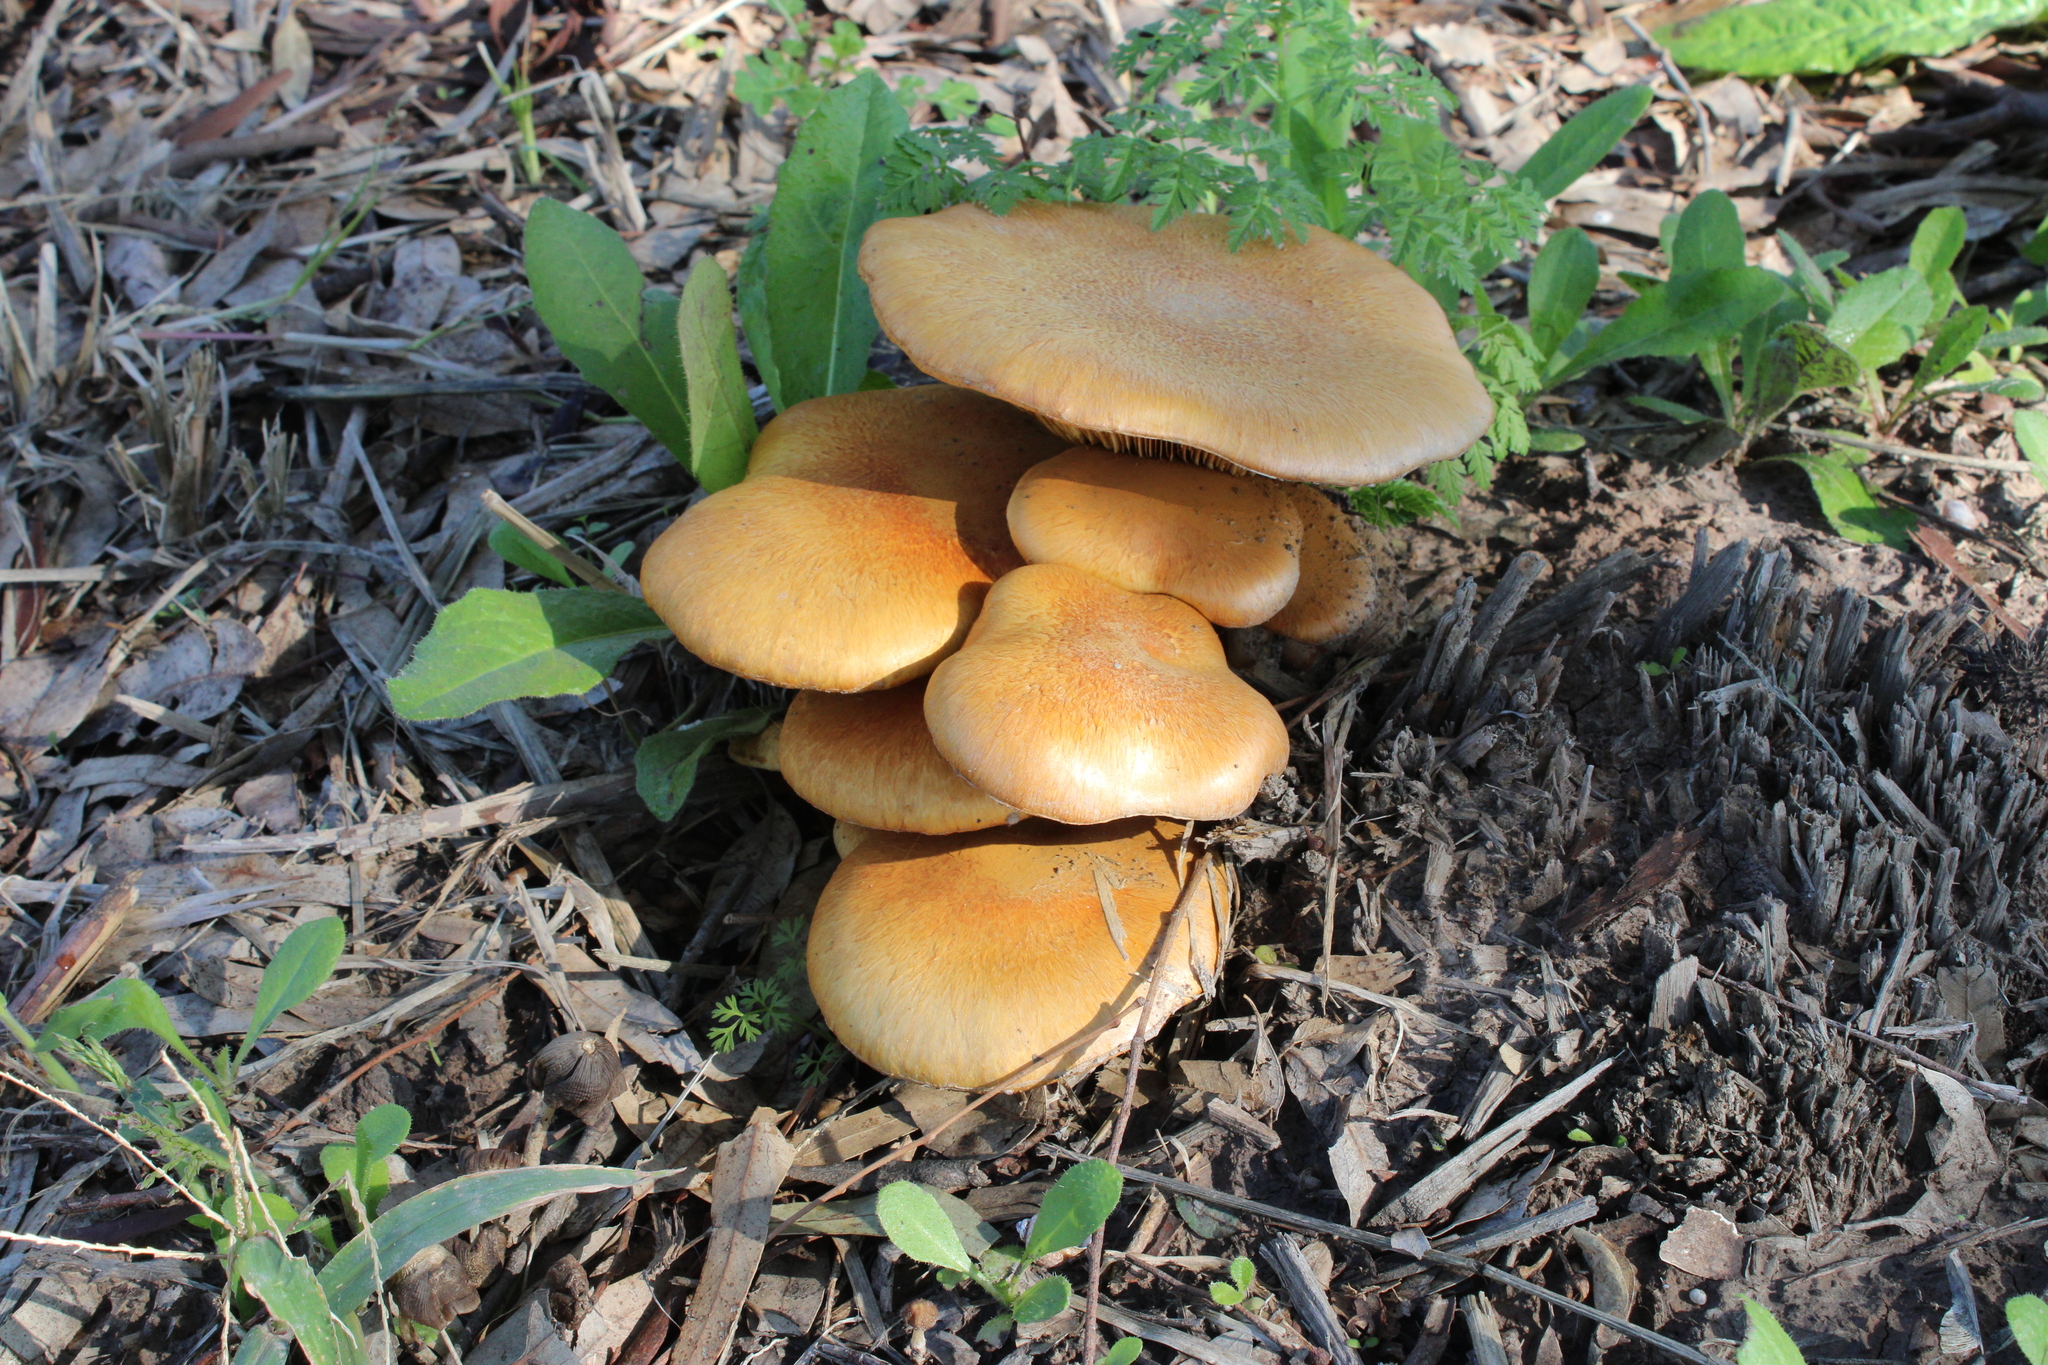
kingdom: Fungi
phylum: Basidiomycota
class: Agaricomycetes
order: Agaricales
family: Hymenogastraceae
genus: Gymnopilus
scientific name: Gymnopilus junonius
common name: Spectacular rustgill
